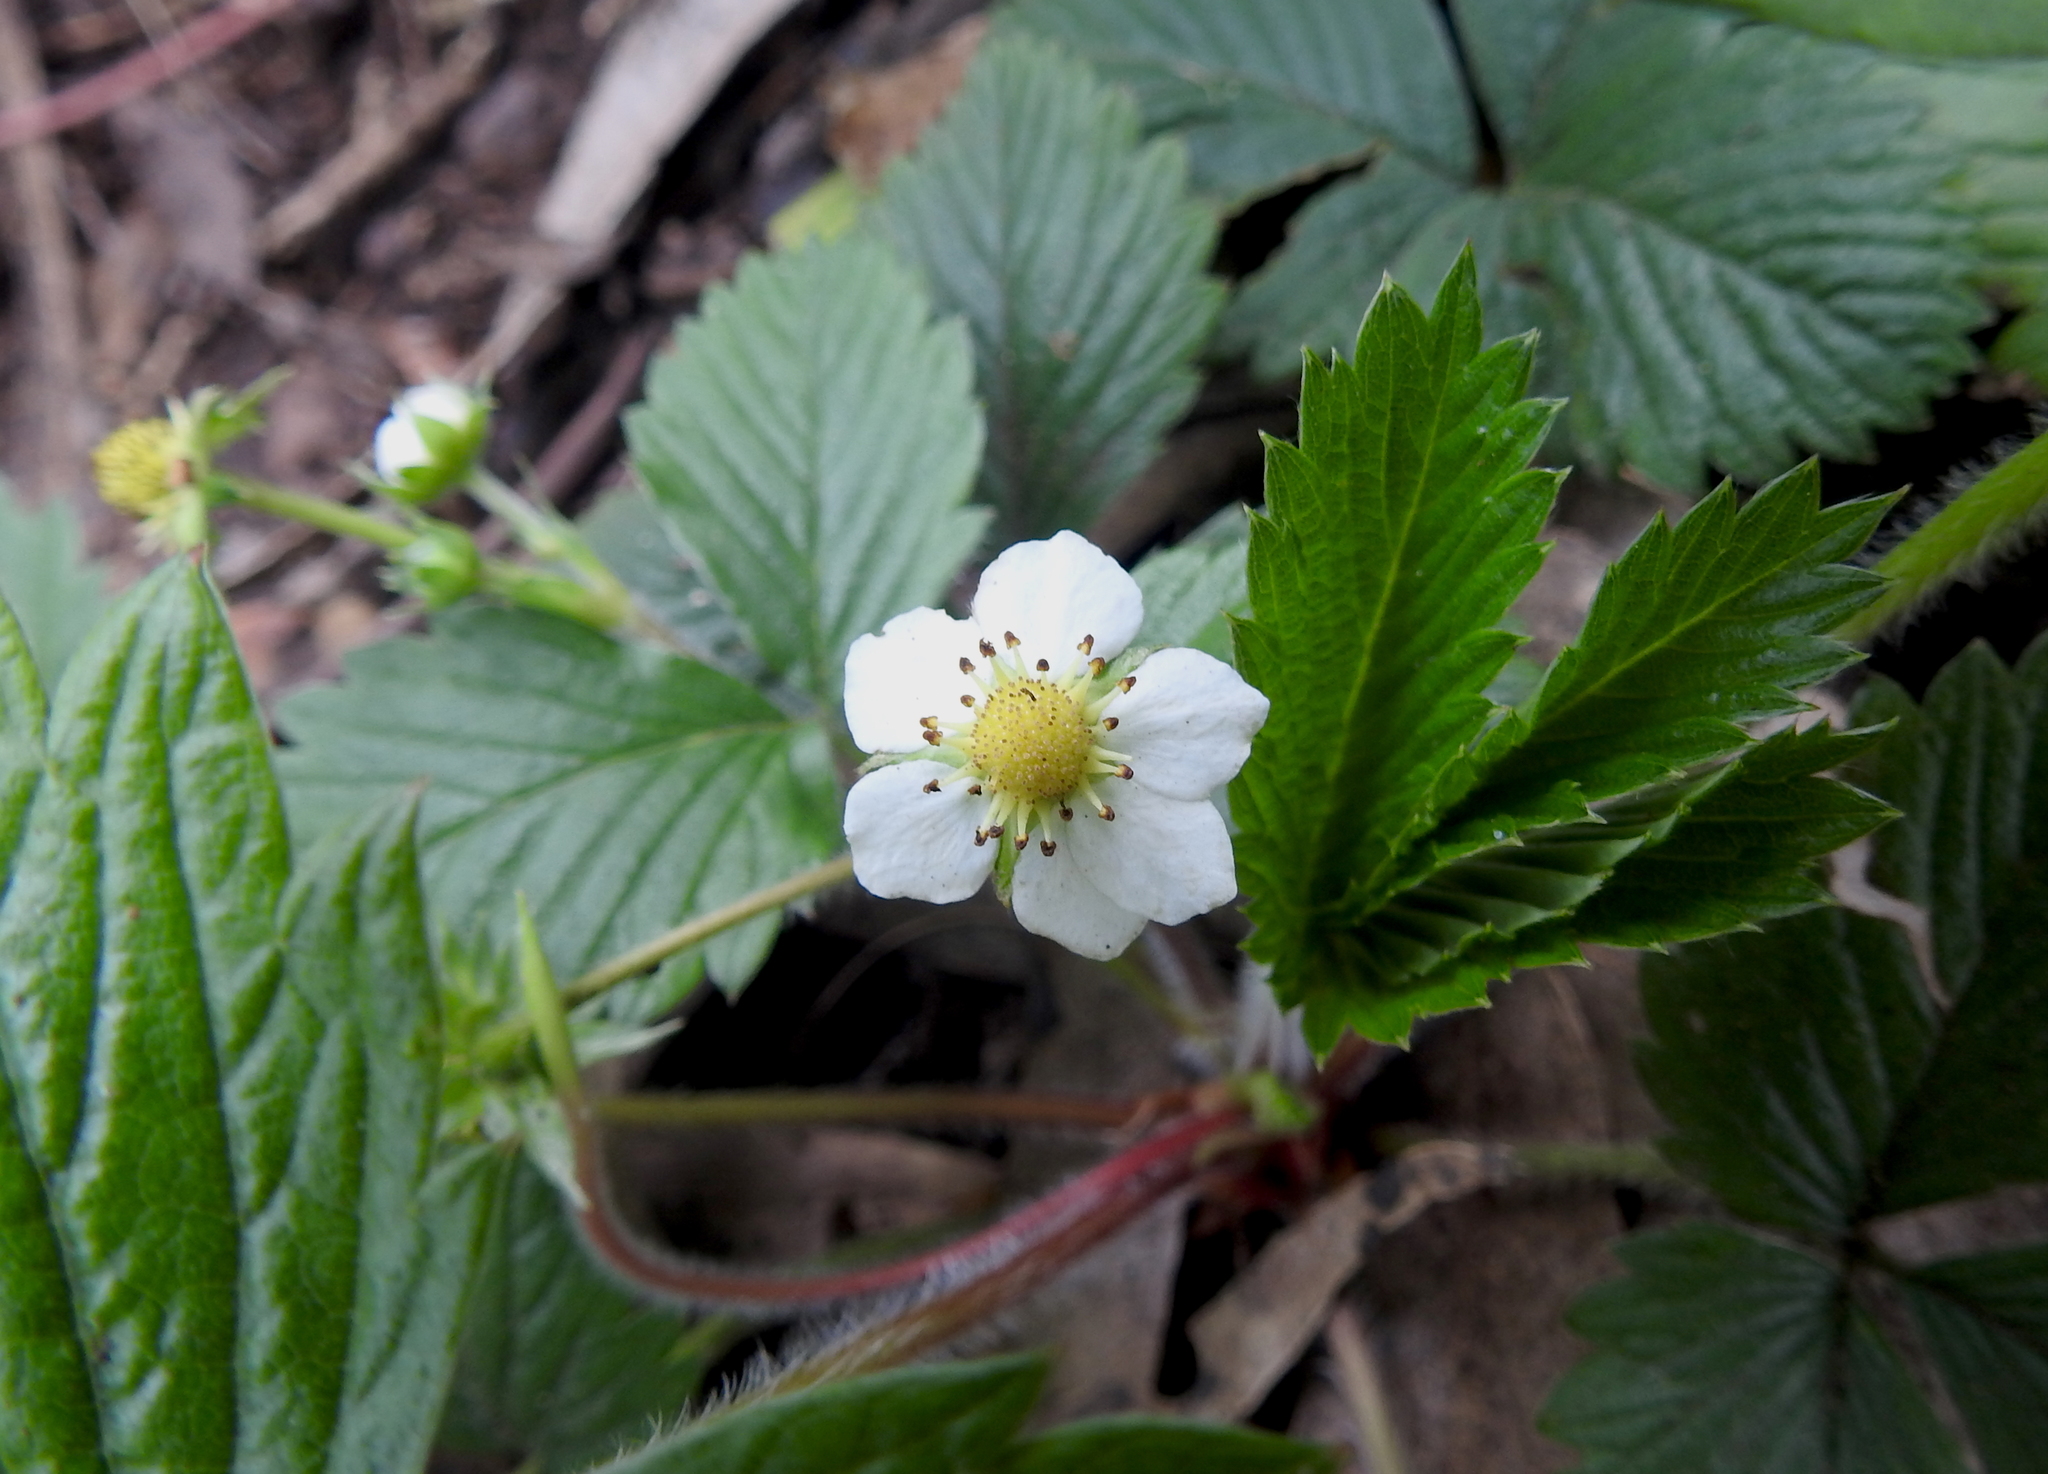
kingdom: Plantae
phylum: Tracheophyta
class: Magnoliopsida
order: Rosales
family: Rosaceae
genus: Fragaria
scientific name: Fragaria vesca
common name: Wild strawberry
